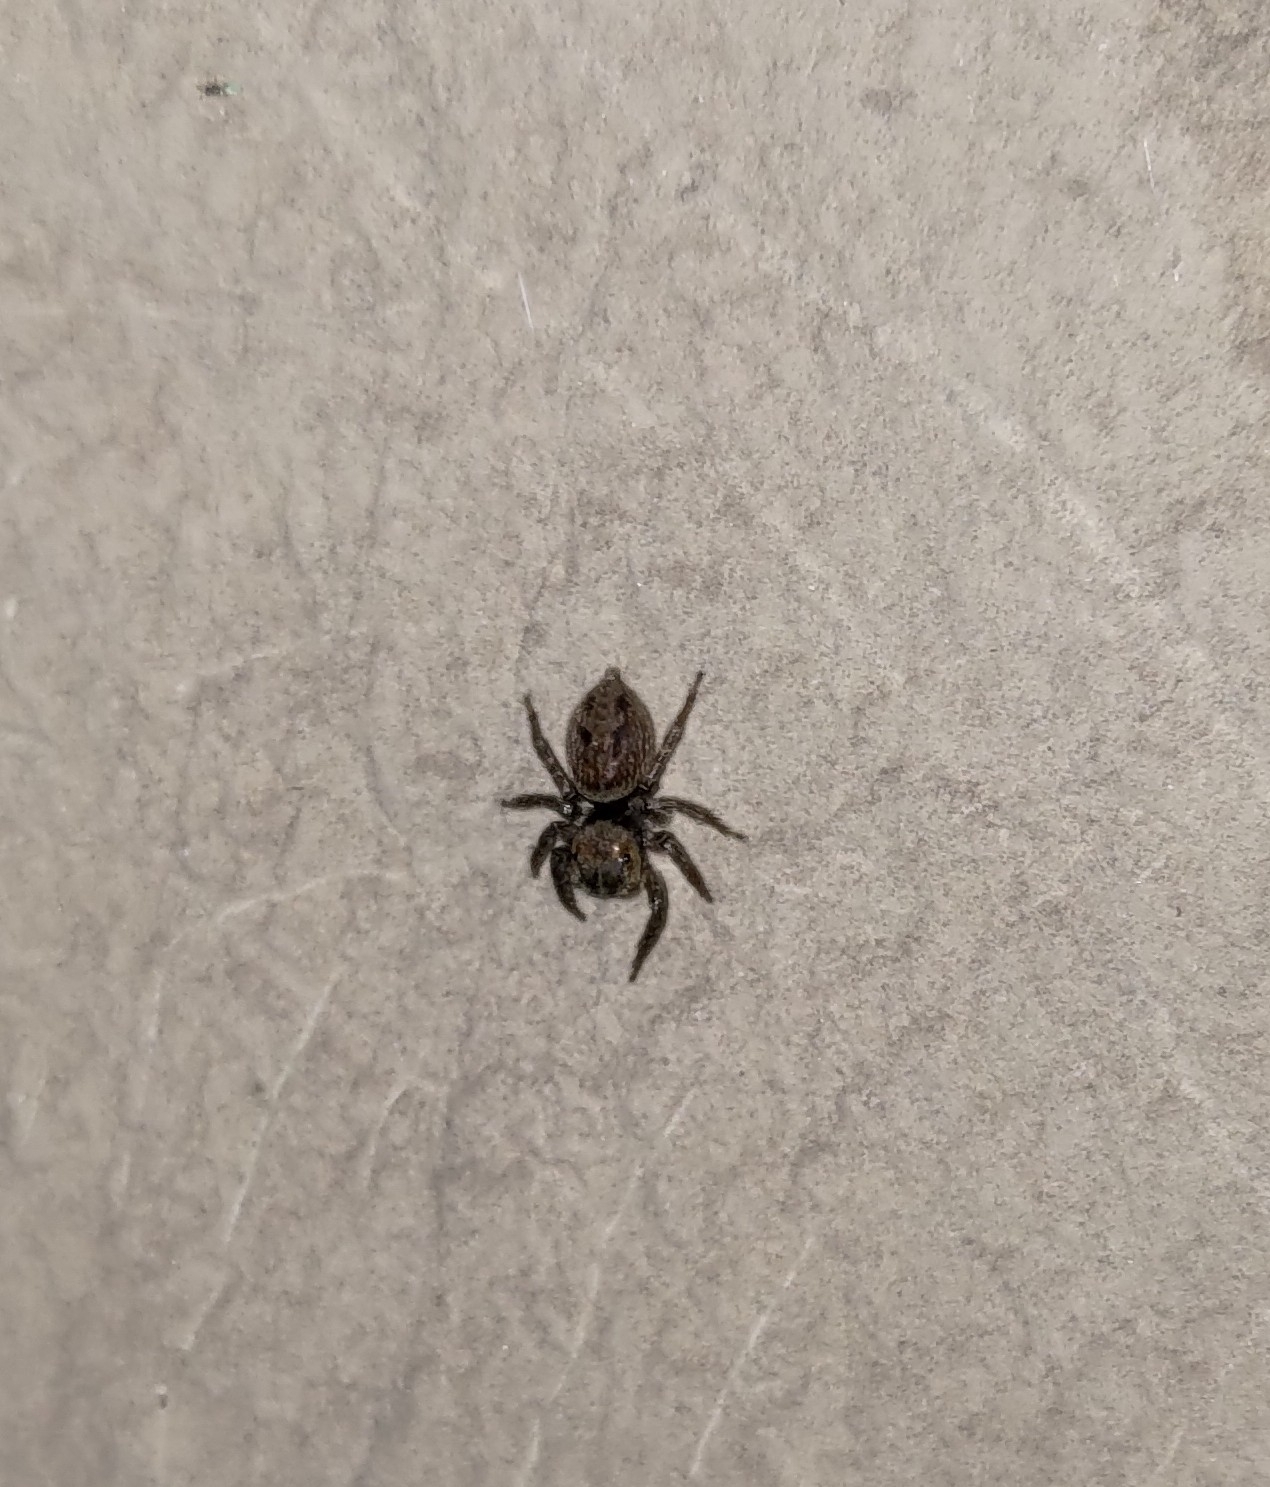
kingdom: Animalia
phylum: Arthropoda
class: Arachnida
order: Araneae
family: Salticidae
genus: Hasarius
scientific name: Hasarius adansoni
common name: Jumping spider
